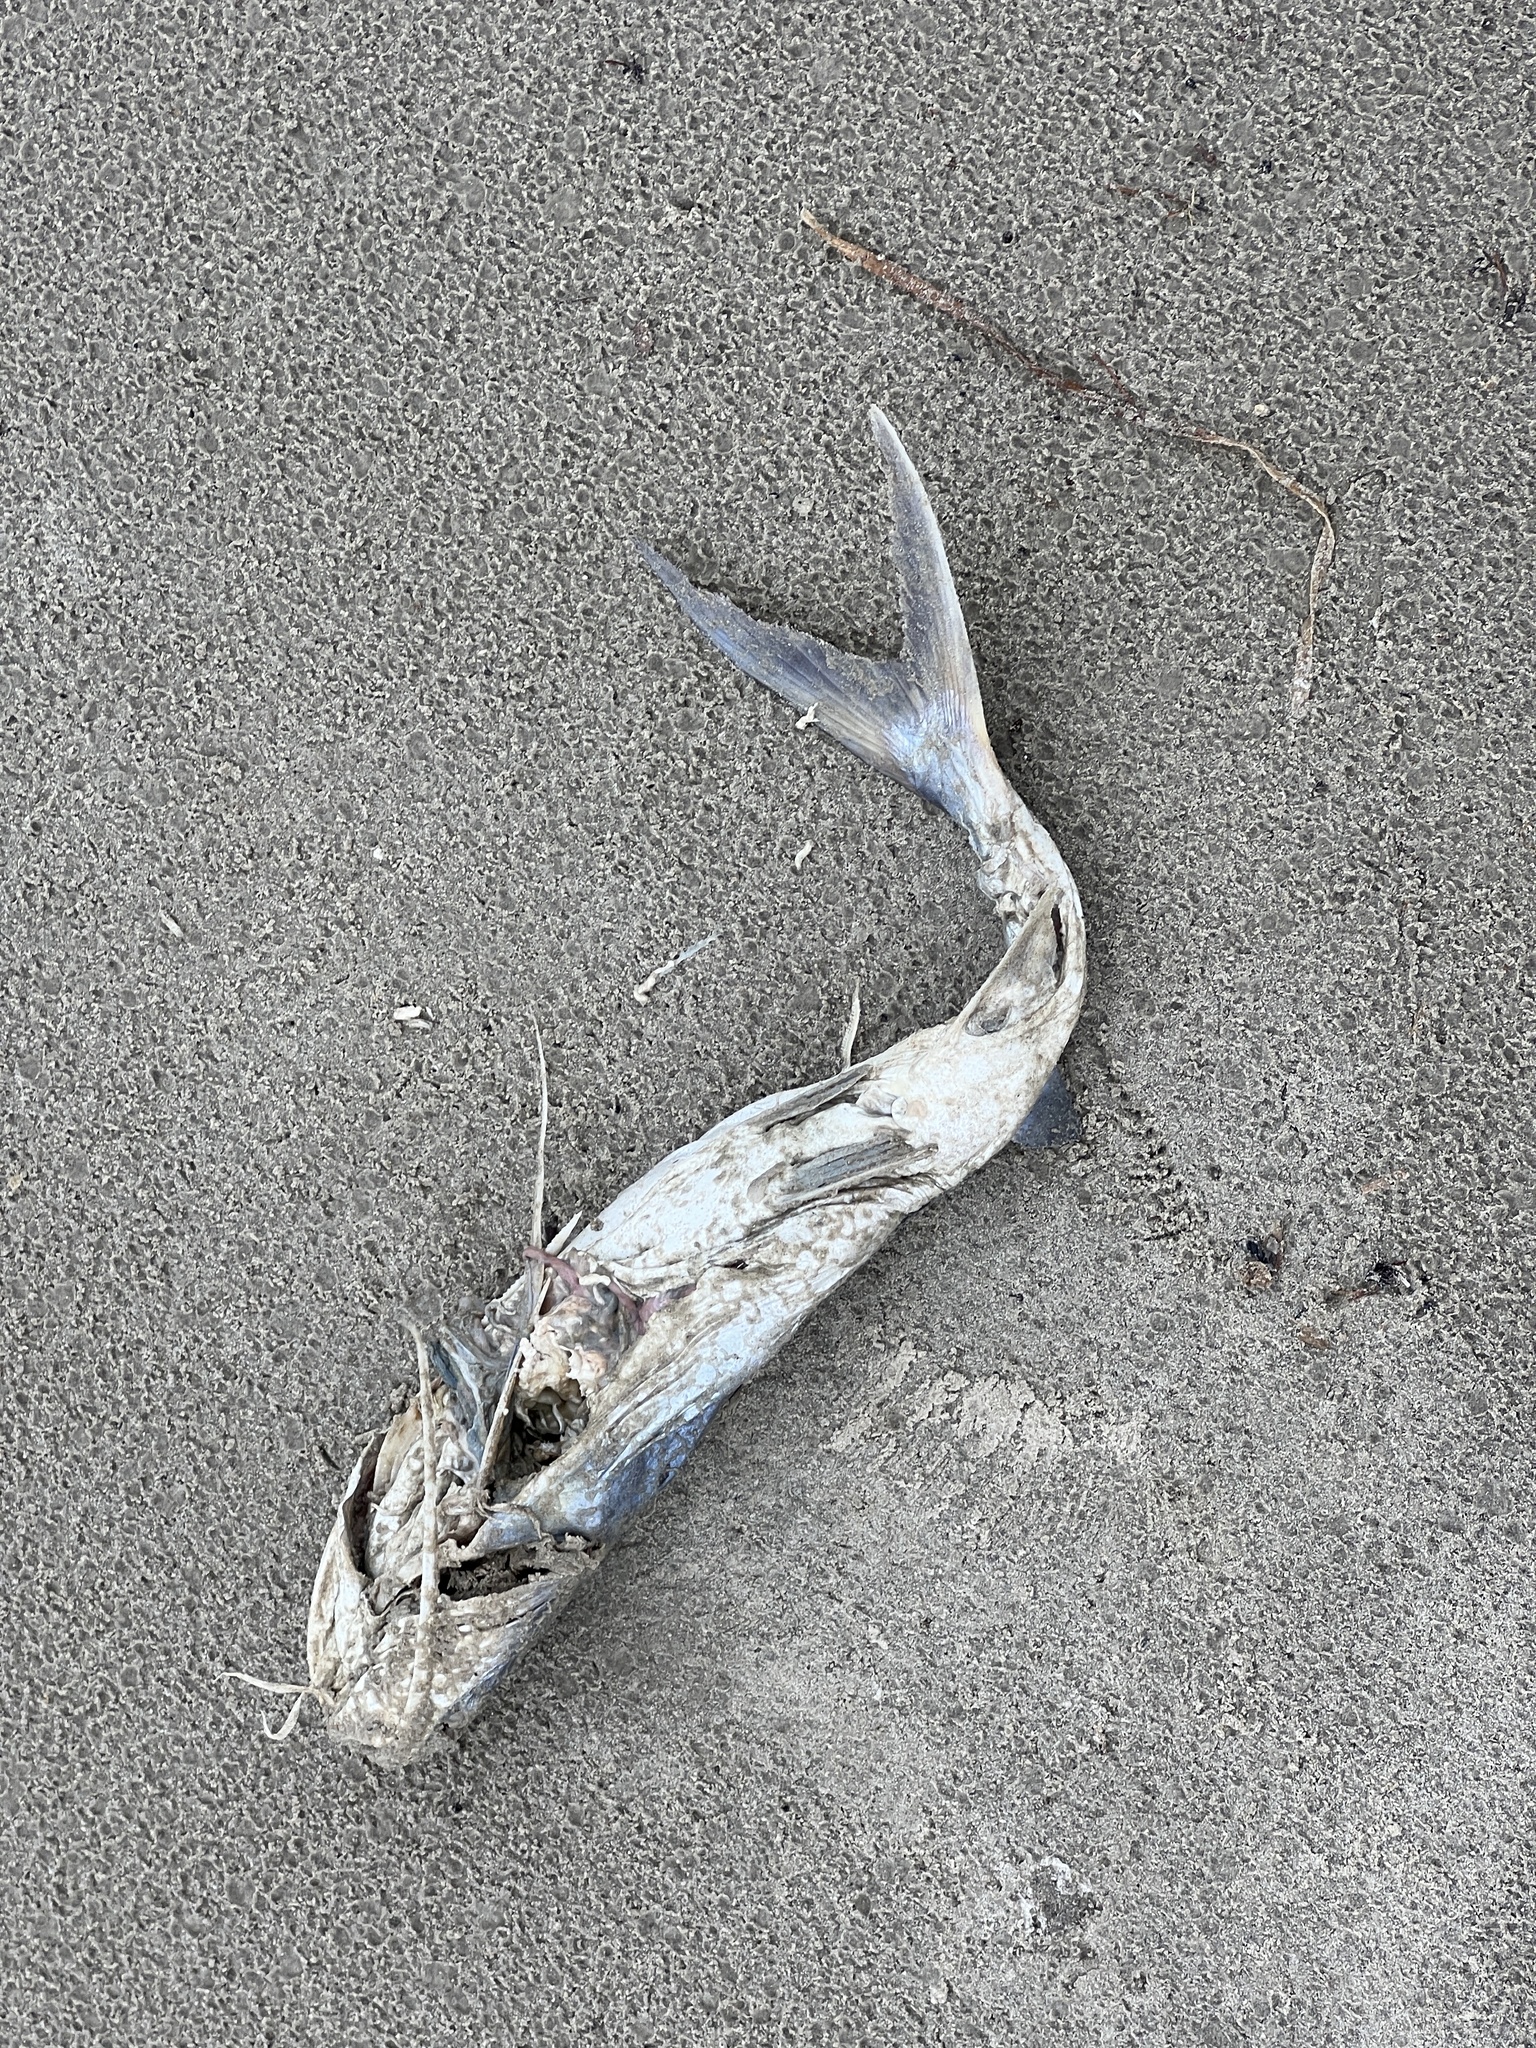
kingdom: Animalia
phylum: Chordata
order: Siluriformes
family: Ariidae
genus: Bagre
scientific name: Bagre marinus
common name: Gafftopsail sea catfish
